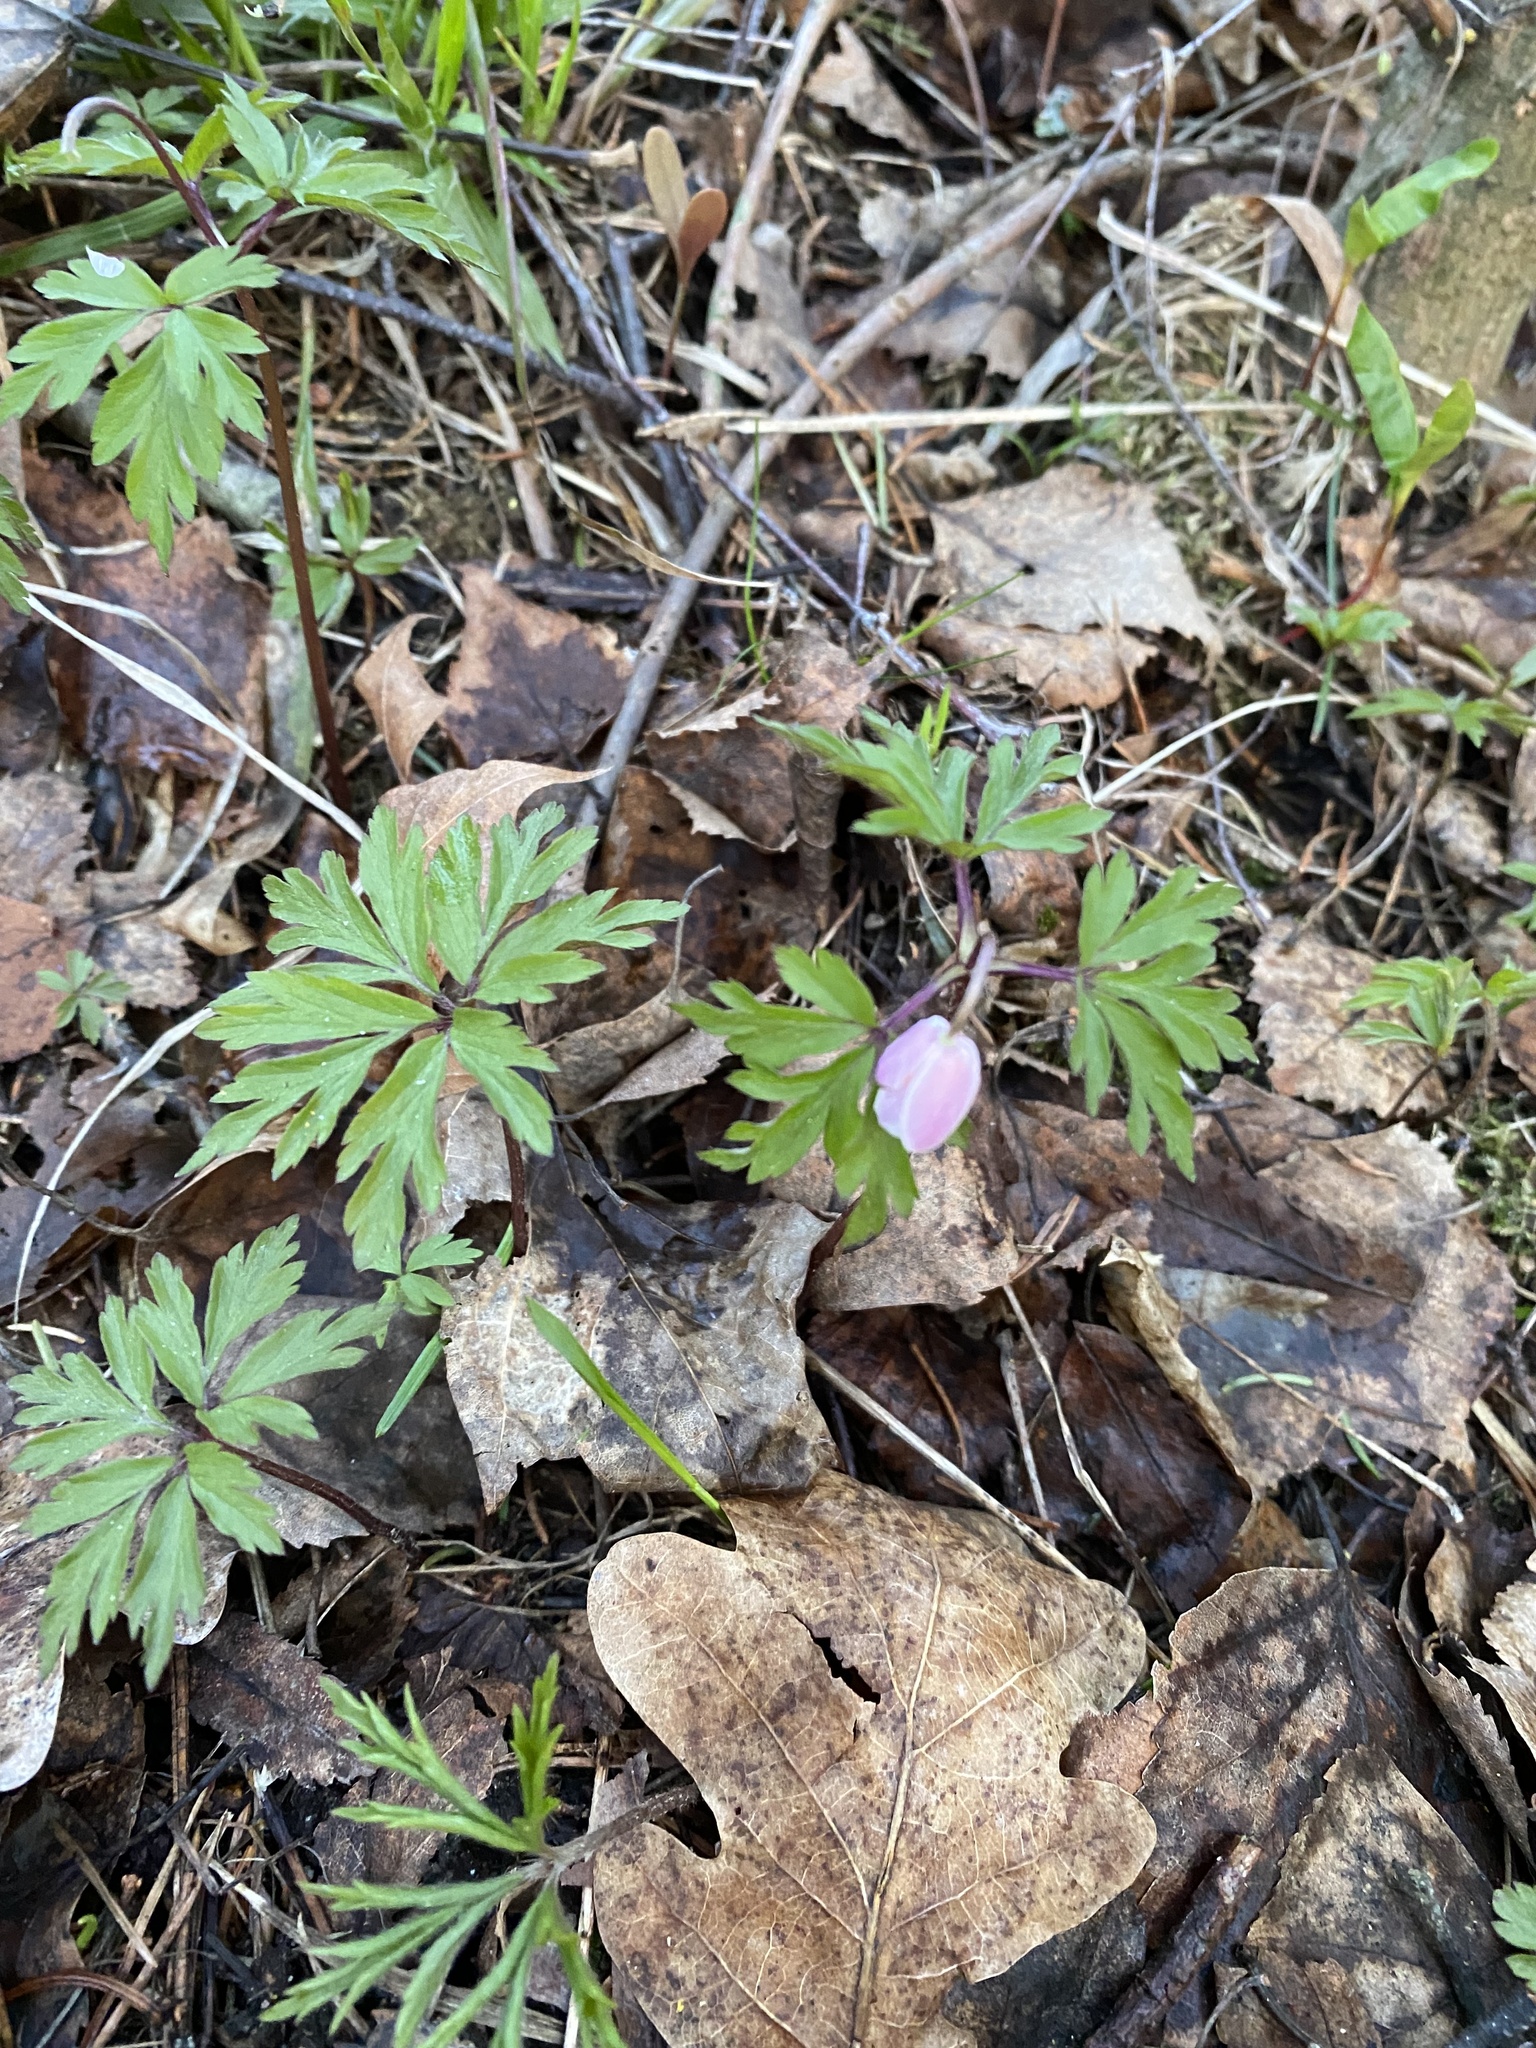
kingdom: Plantae
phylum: Tracheophyta
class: Magnoliopsida
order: Ranunculales
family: Ranunculaceae
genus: Anemone
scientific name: Anemone nemorosa
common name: Wood anemone
